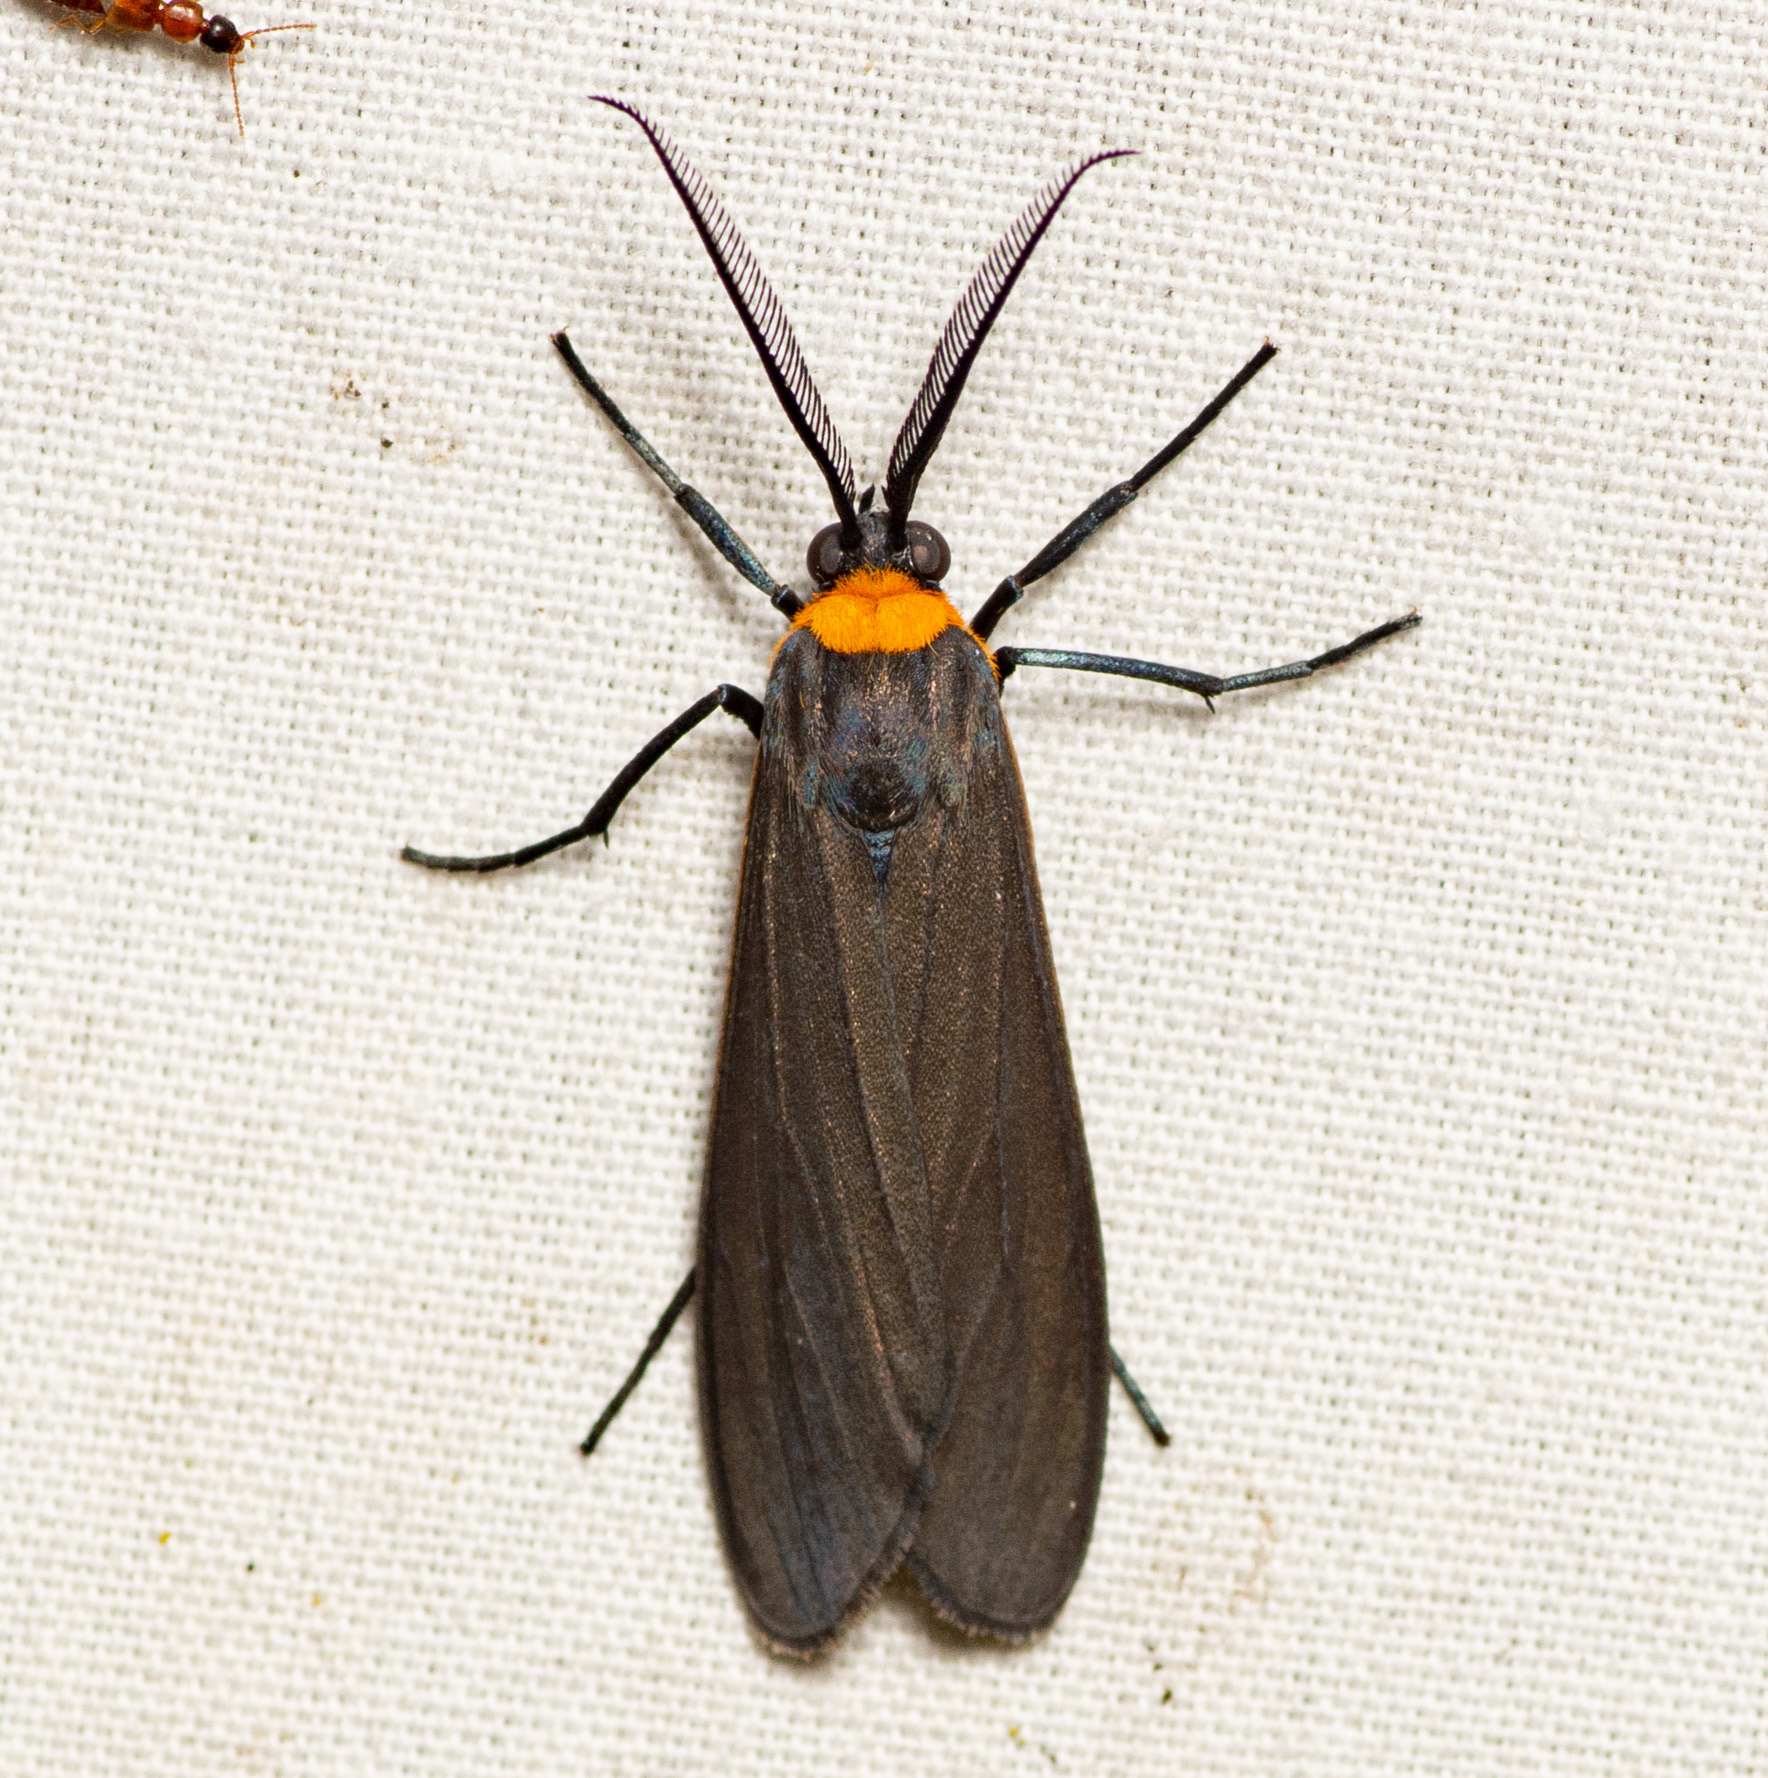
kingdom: Animalia
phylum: Arthropoda
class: Insecta
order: Lepidoptera
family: Erebidae
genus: Cisseps
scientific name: Cisseps fulvicollis
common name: Yellow-collared scape moth
